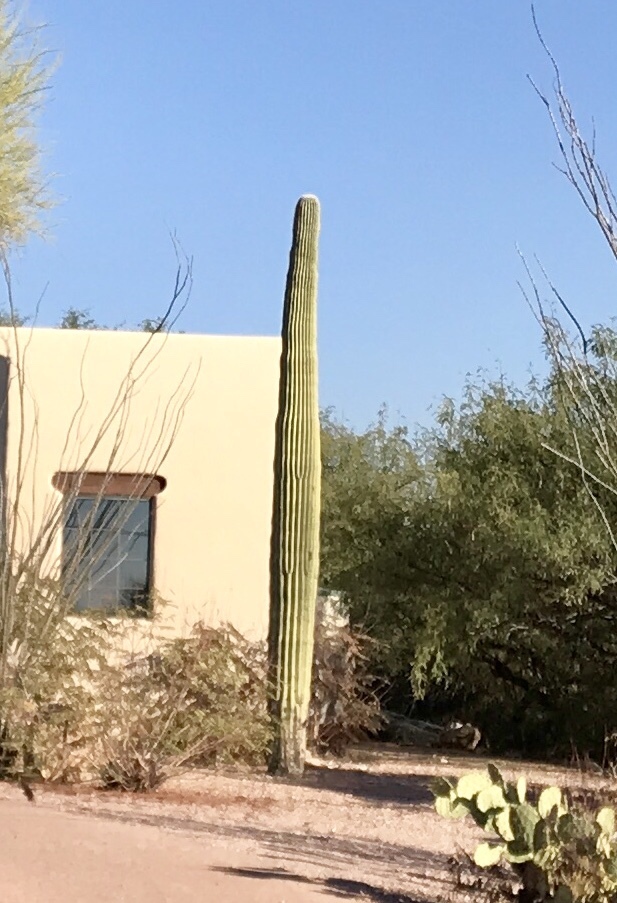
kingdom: Plantae
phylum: Tracheophyta
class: Magnoliopsida
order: Caryophyllales
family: Cactaceae
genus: Carnegiea
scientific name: Carnegiea gigantea
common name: Saguaro
